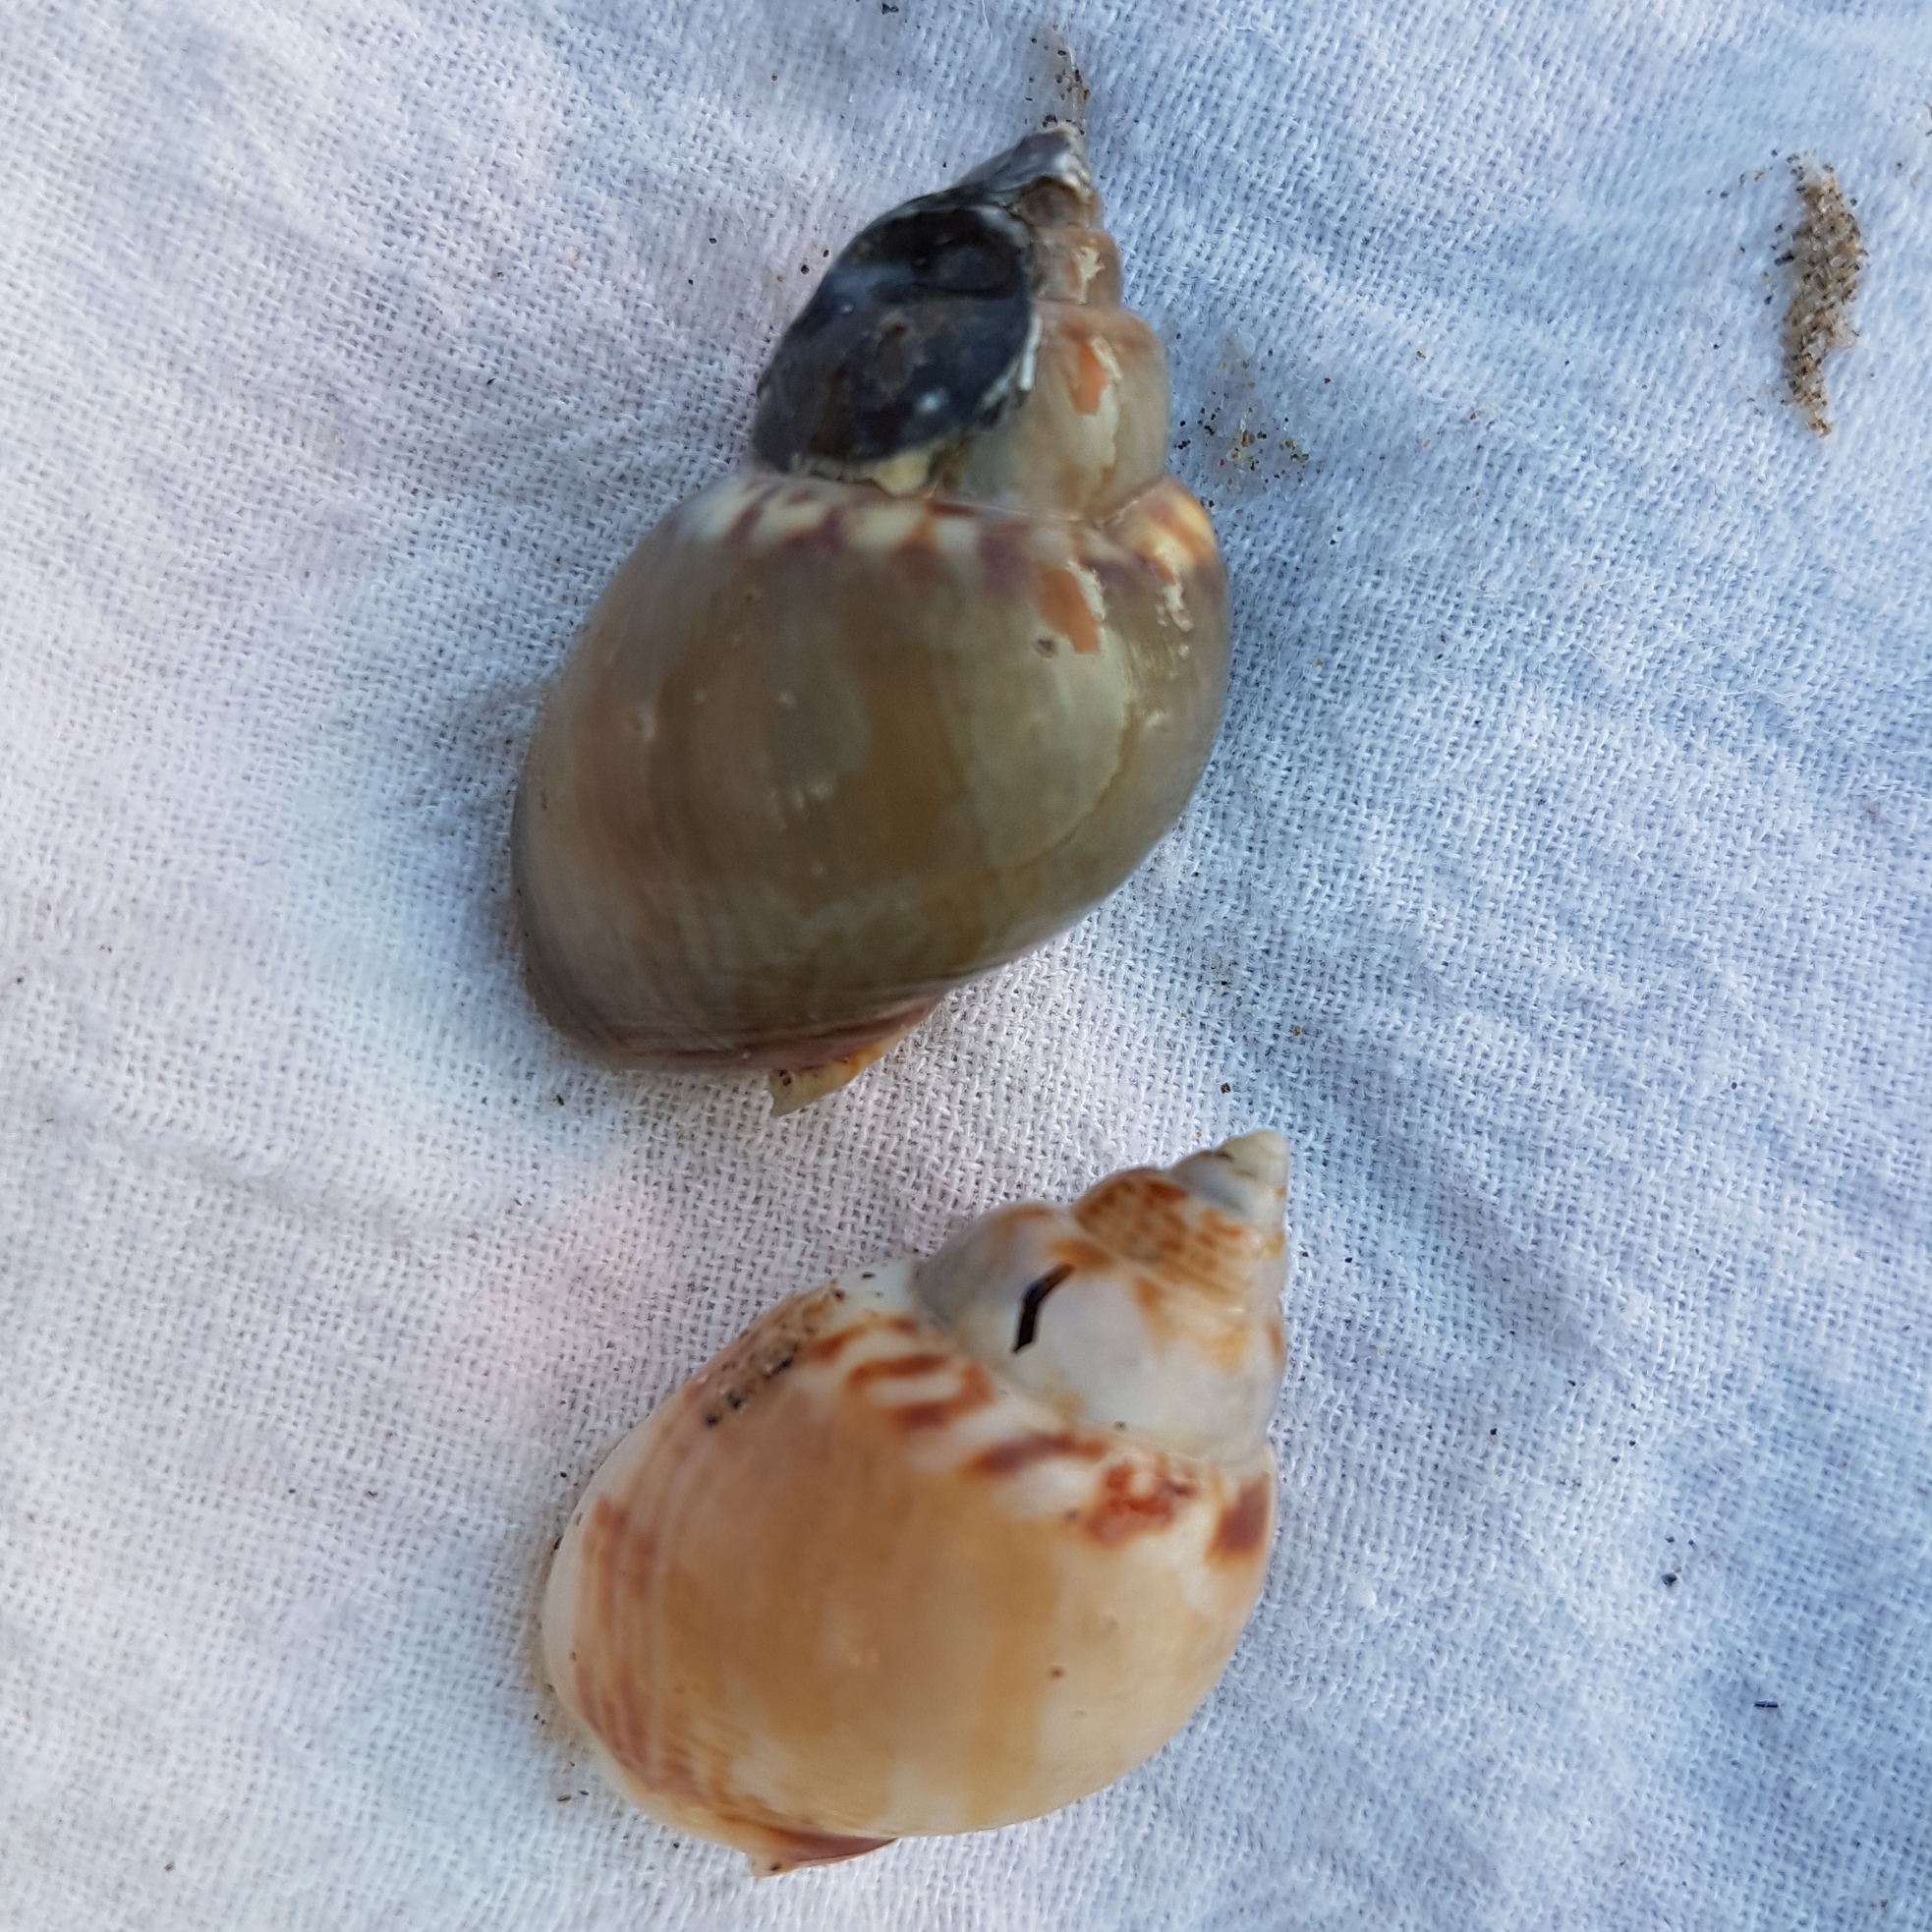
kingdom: Animalia
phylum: Mollusca
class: Gastropoda
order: Neogastropoda
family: Nassariidae
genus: Tritia
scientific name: Tritia mutabilis
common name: Mutable nassa
